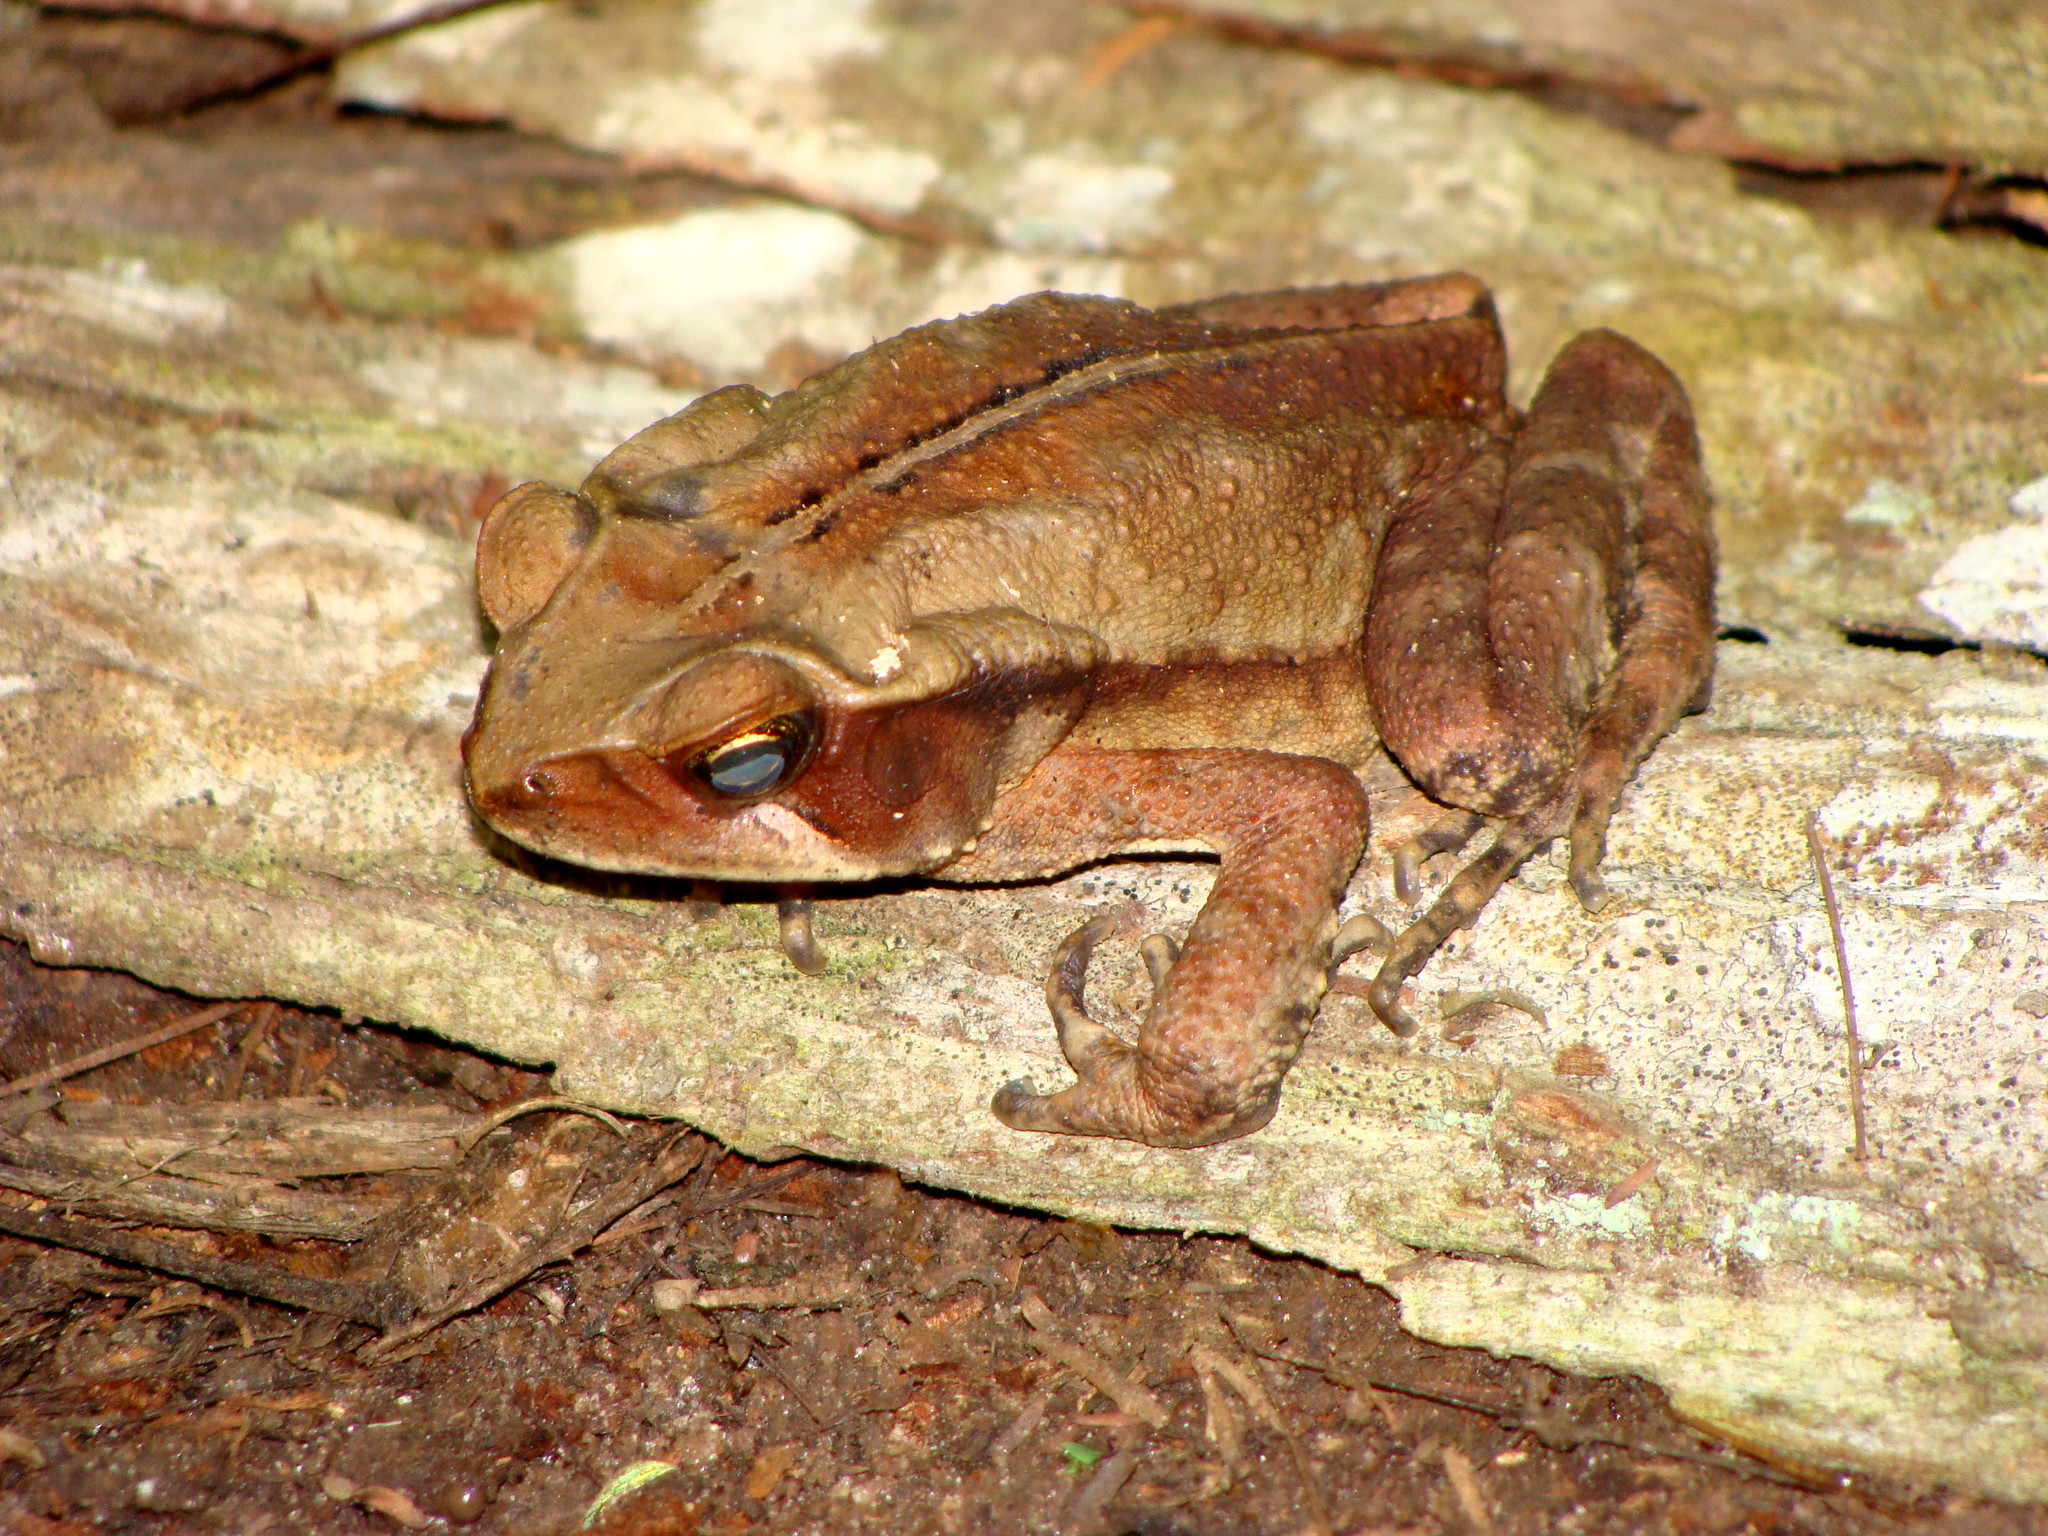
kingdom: Animalia
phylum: Chordata
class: Amphibia
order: Anura
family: Bufonidae
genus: Rhinella
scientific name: Rhinella ornata
